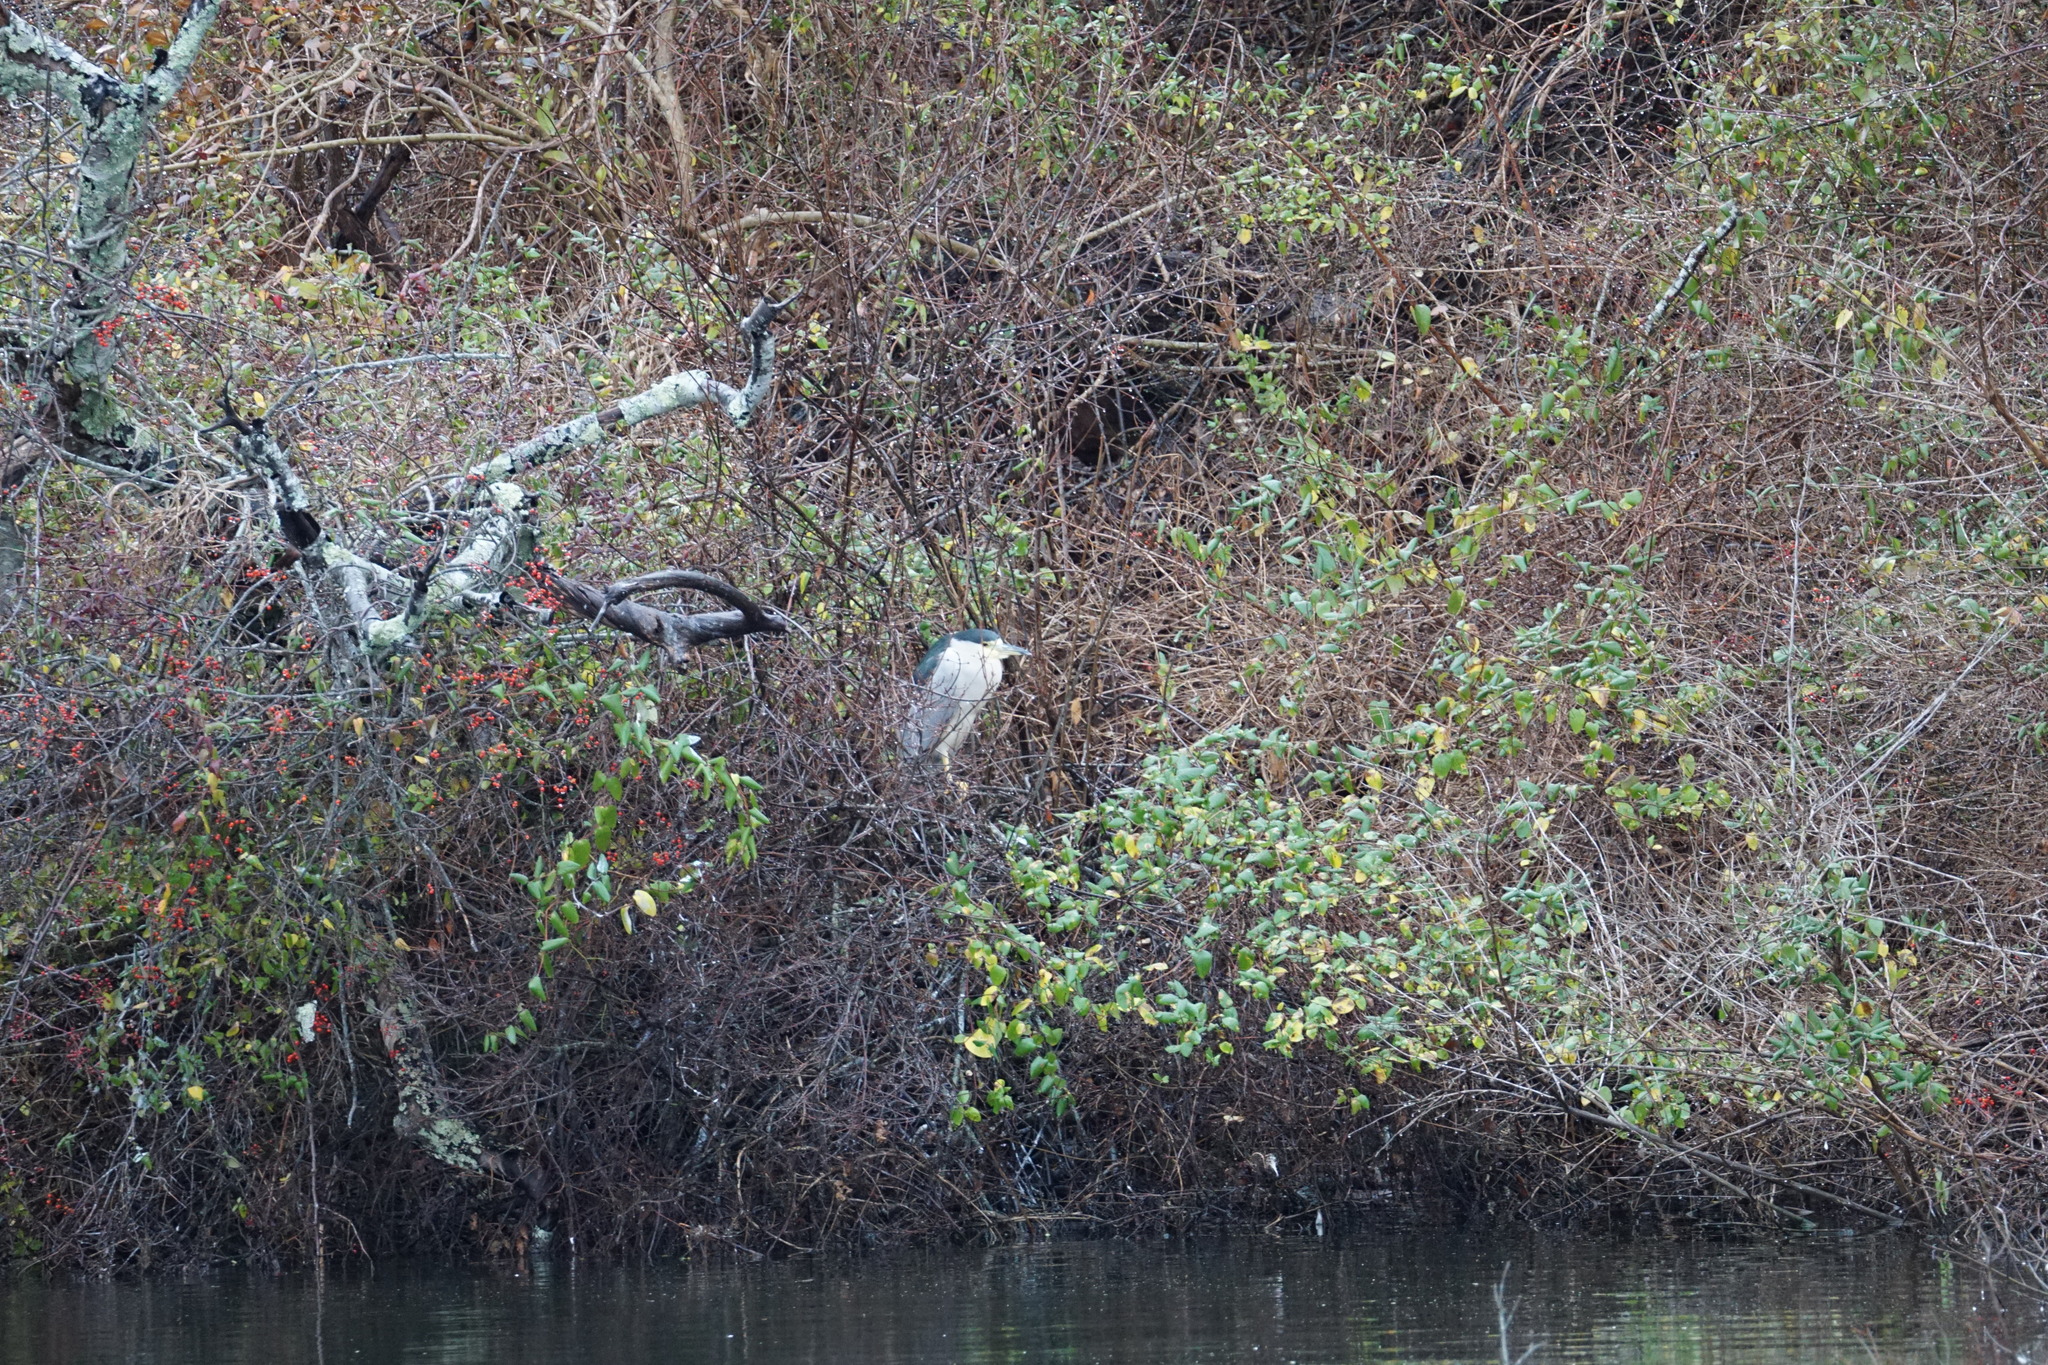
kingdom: Animalia
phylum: Chordata
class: Aves
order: Pelecaniformes
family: Ardeidae
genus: Nycticorax
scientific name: Nycticorax nycticorax
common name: Black-crowned night heron
